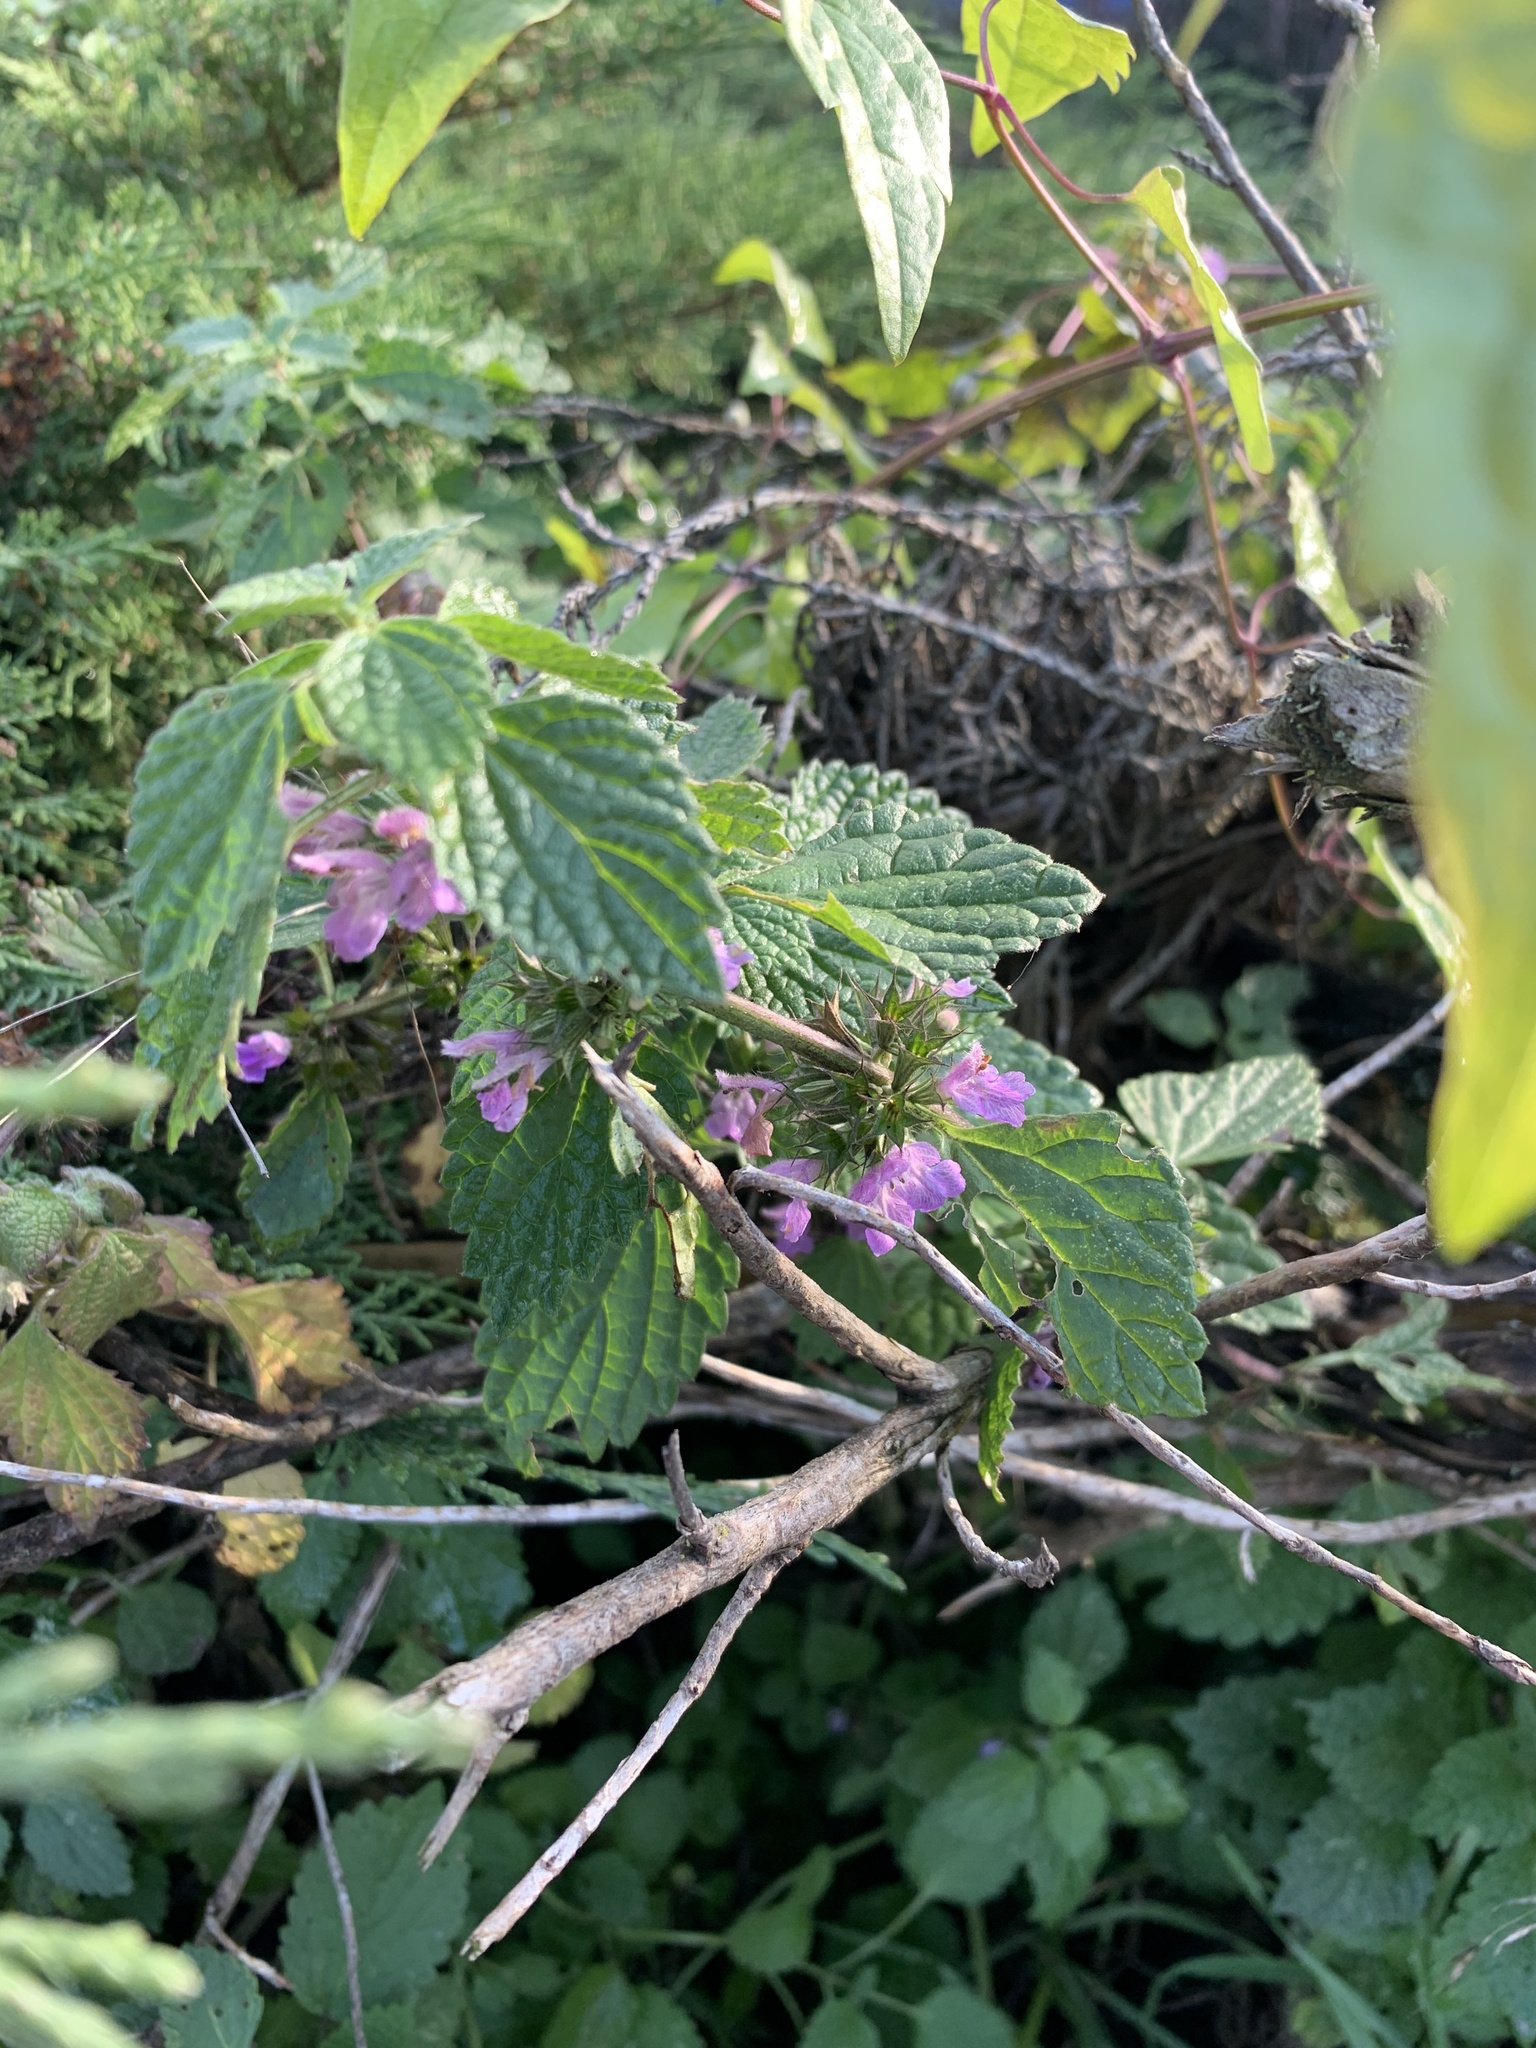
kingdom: Plantae
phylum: Tracheophyta
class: Magnoliopsida
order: Lamiales
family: Lamiaceae
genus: Ballota
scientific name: Ballota nigra
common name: Black horehound
